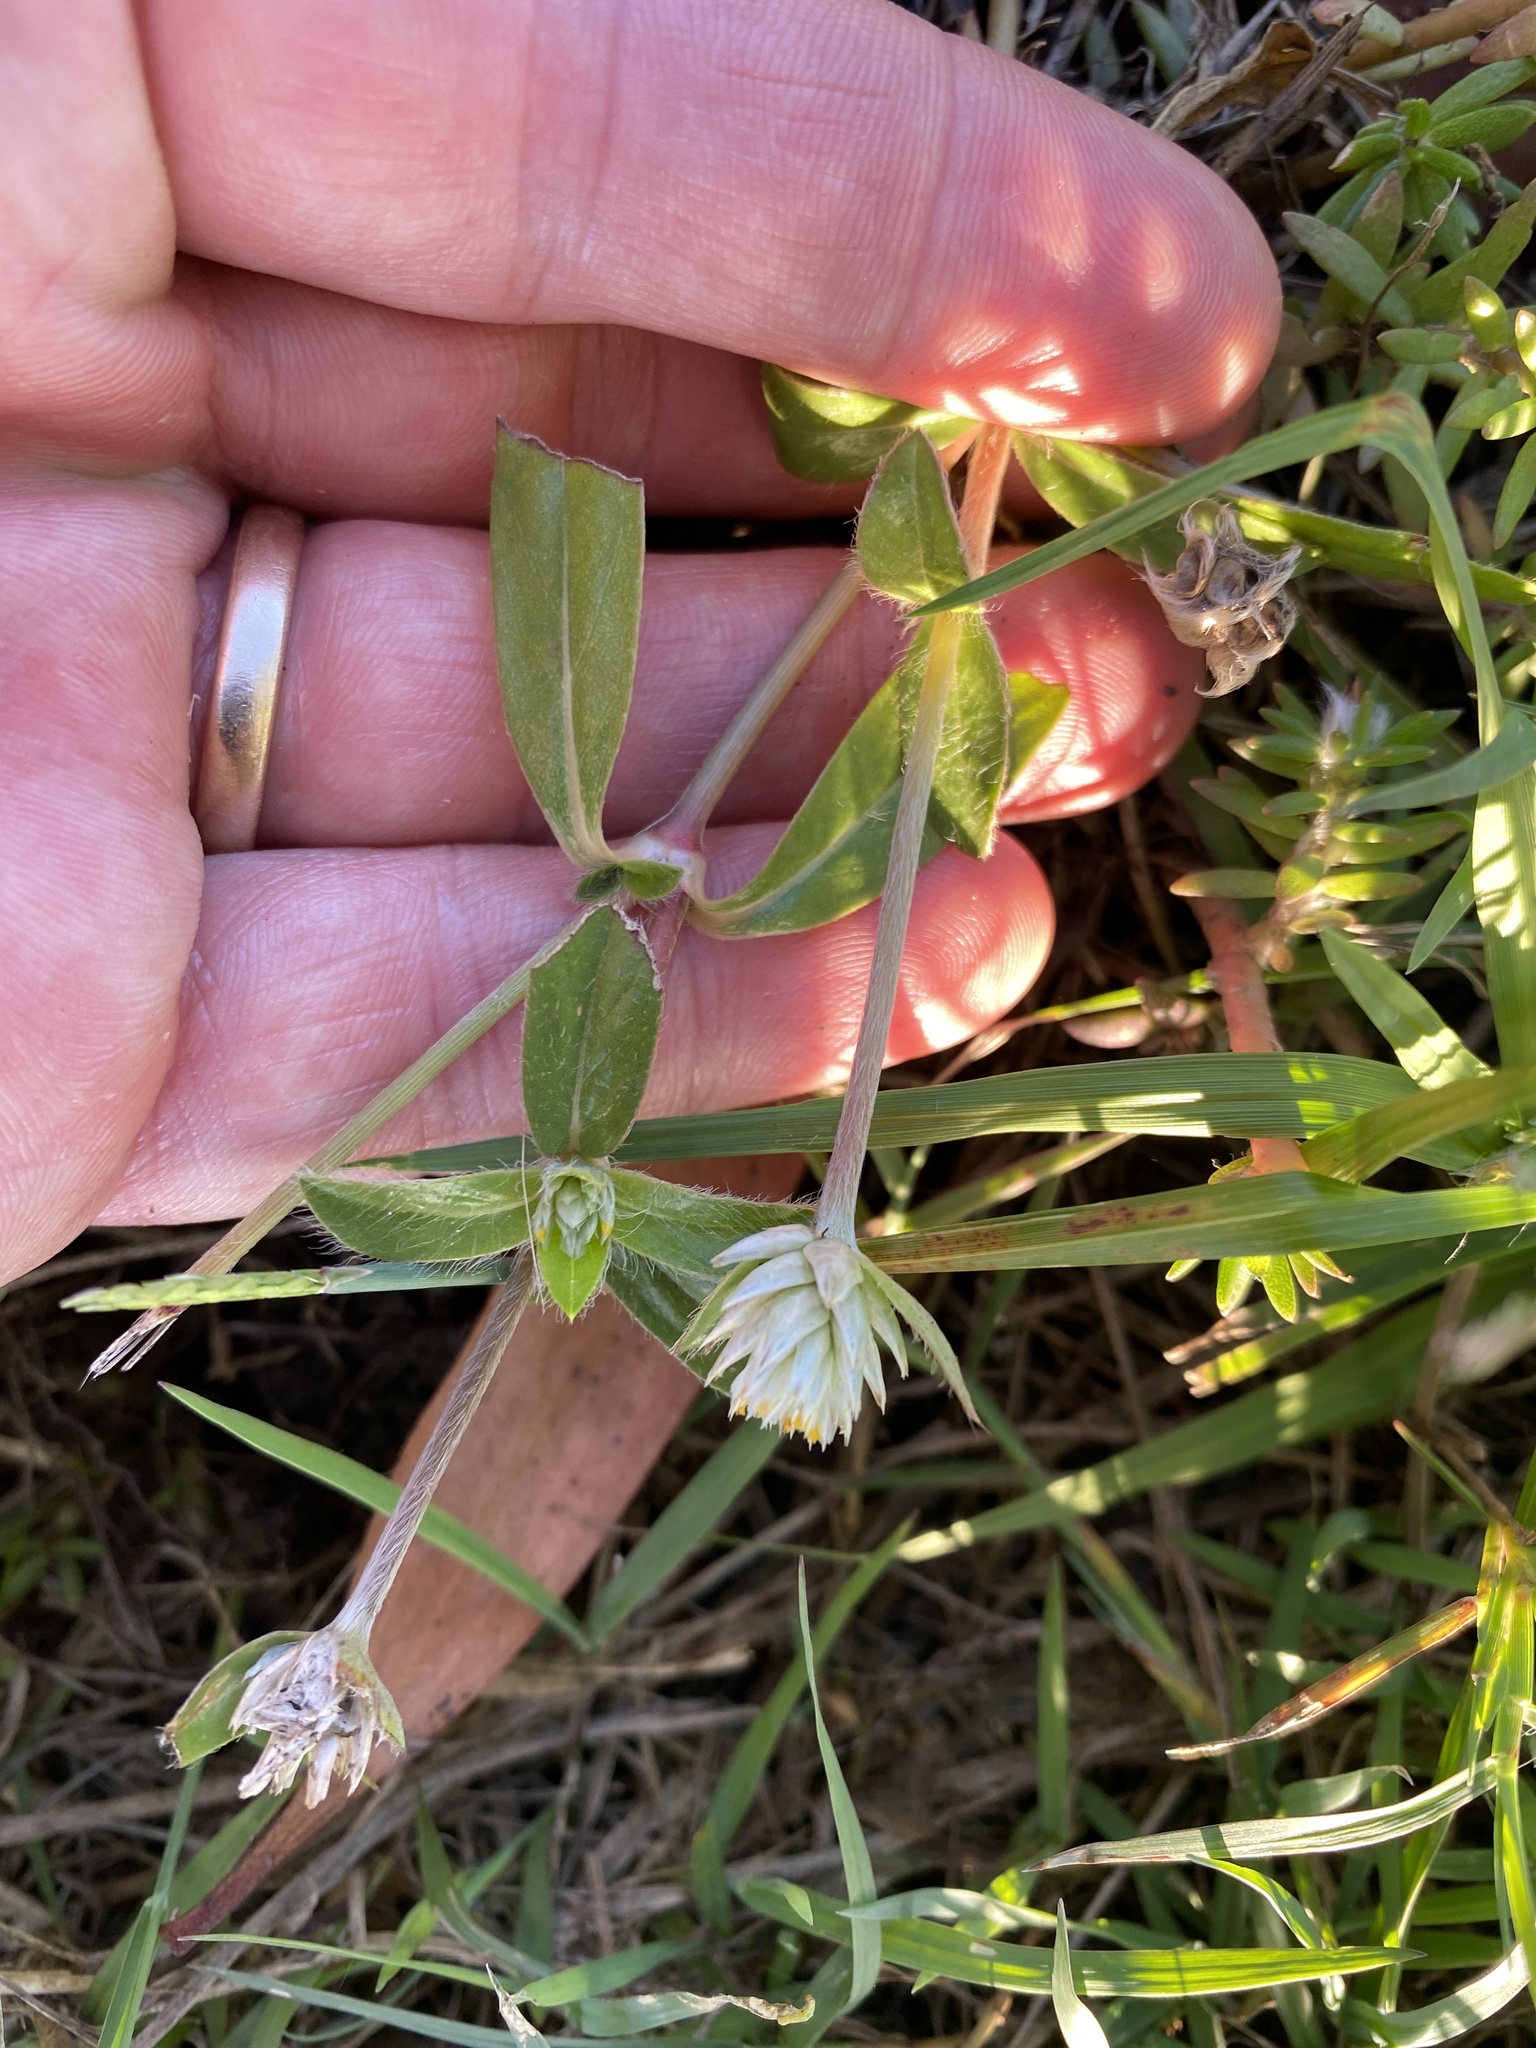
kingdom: Plantae
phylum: Tracheophyta
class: Magnoliopsida
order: Caryophyllales
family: Amaranthaceae
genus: Gomphrena
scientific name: Gomphrena celosioides
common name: Gomphrena-weed
